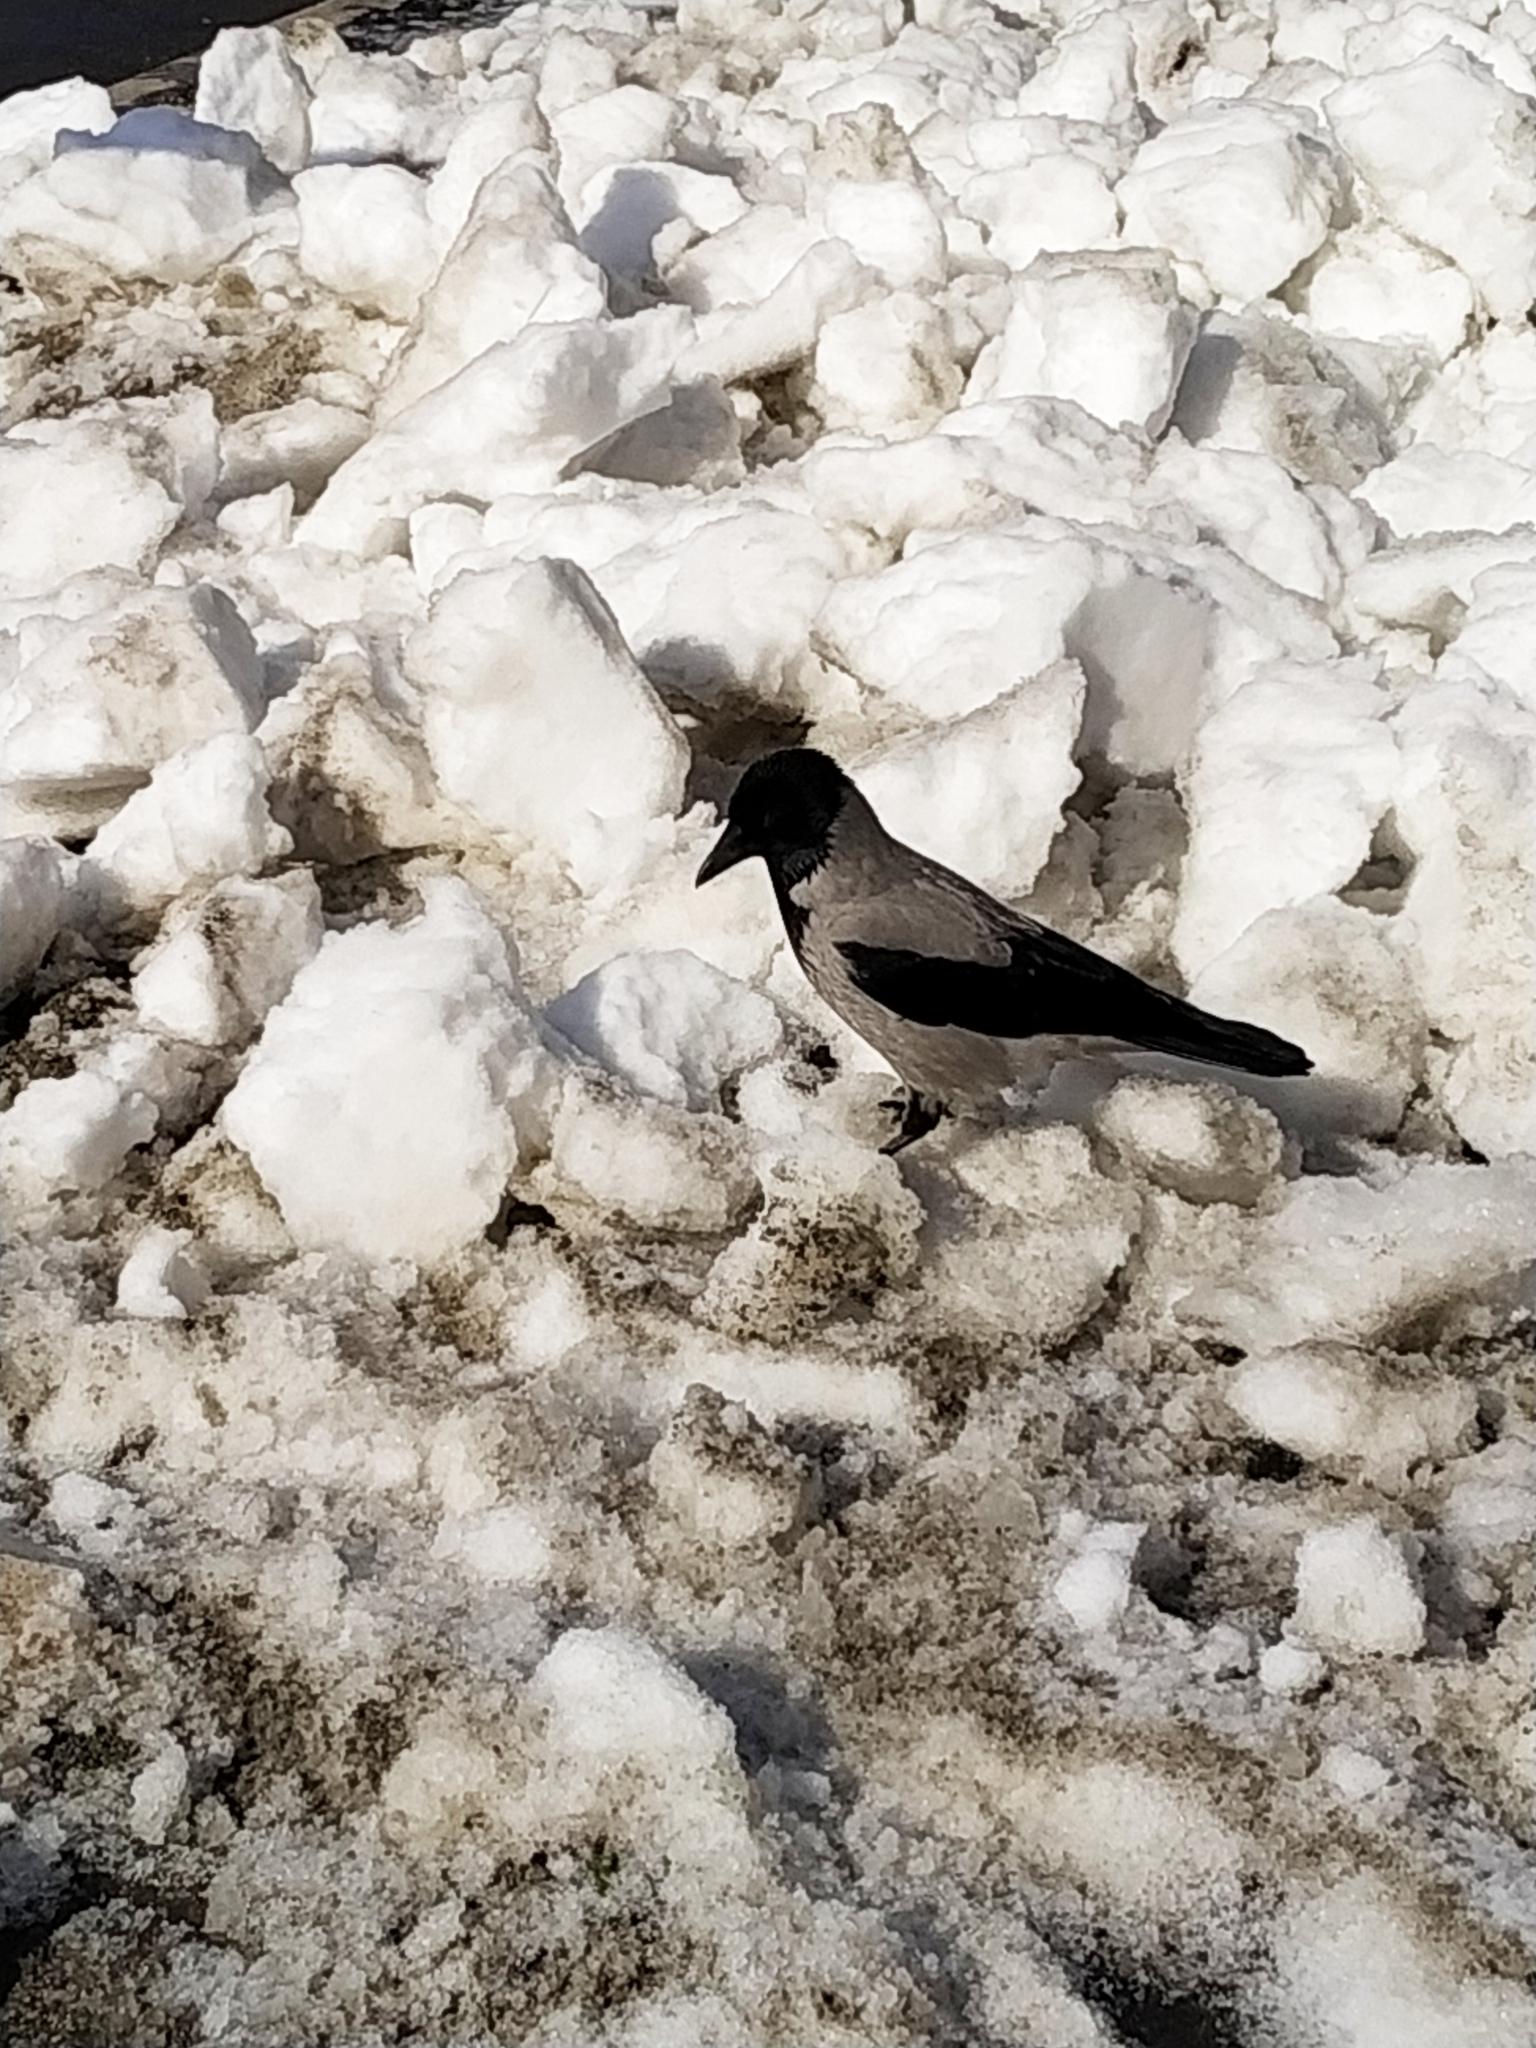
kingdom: Animalia
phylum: Chordata
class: Aves
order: Passeriformes
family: Corvidae
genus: Corvus
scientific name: Corvus cornix
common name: Hooded crow
